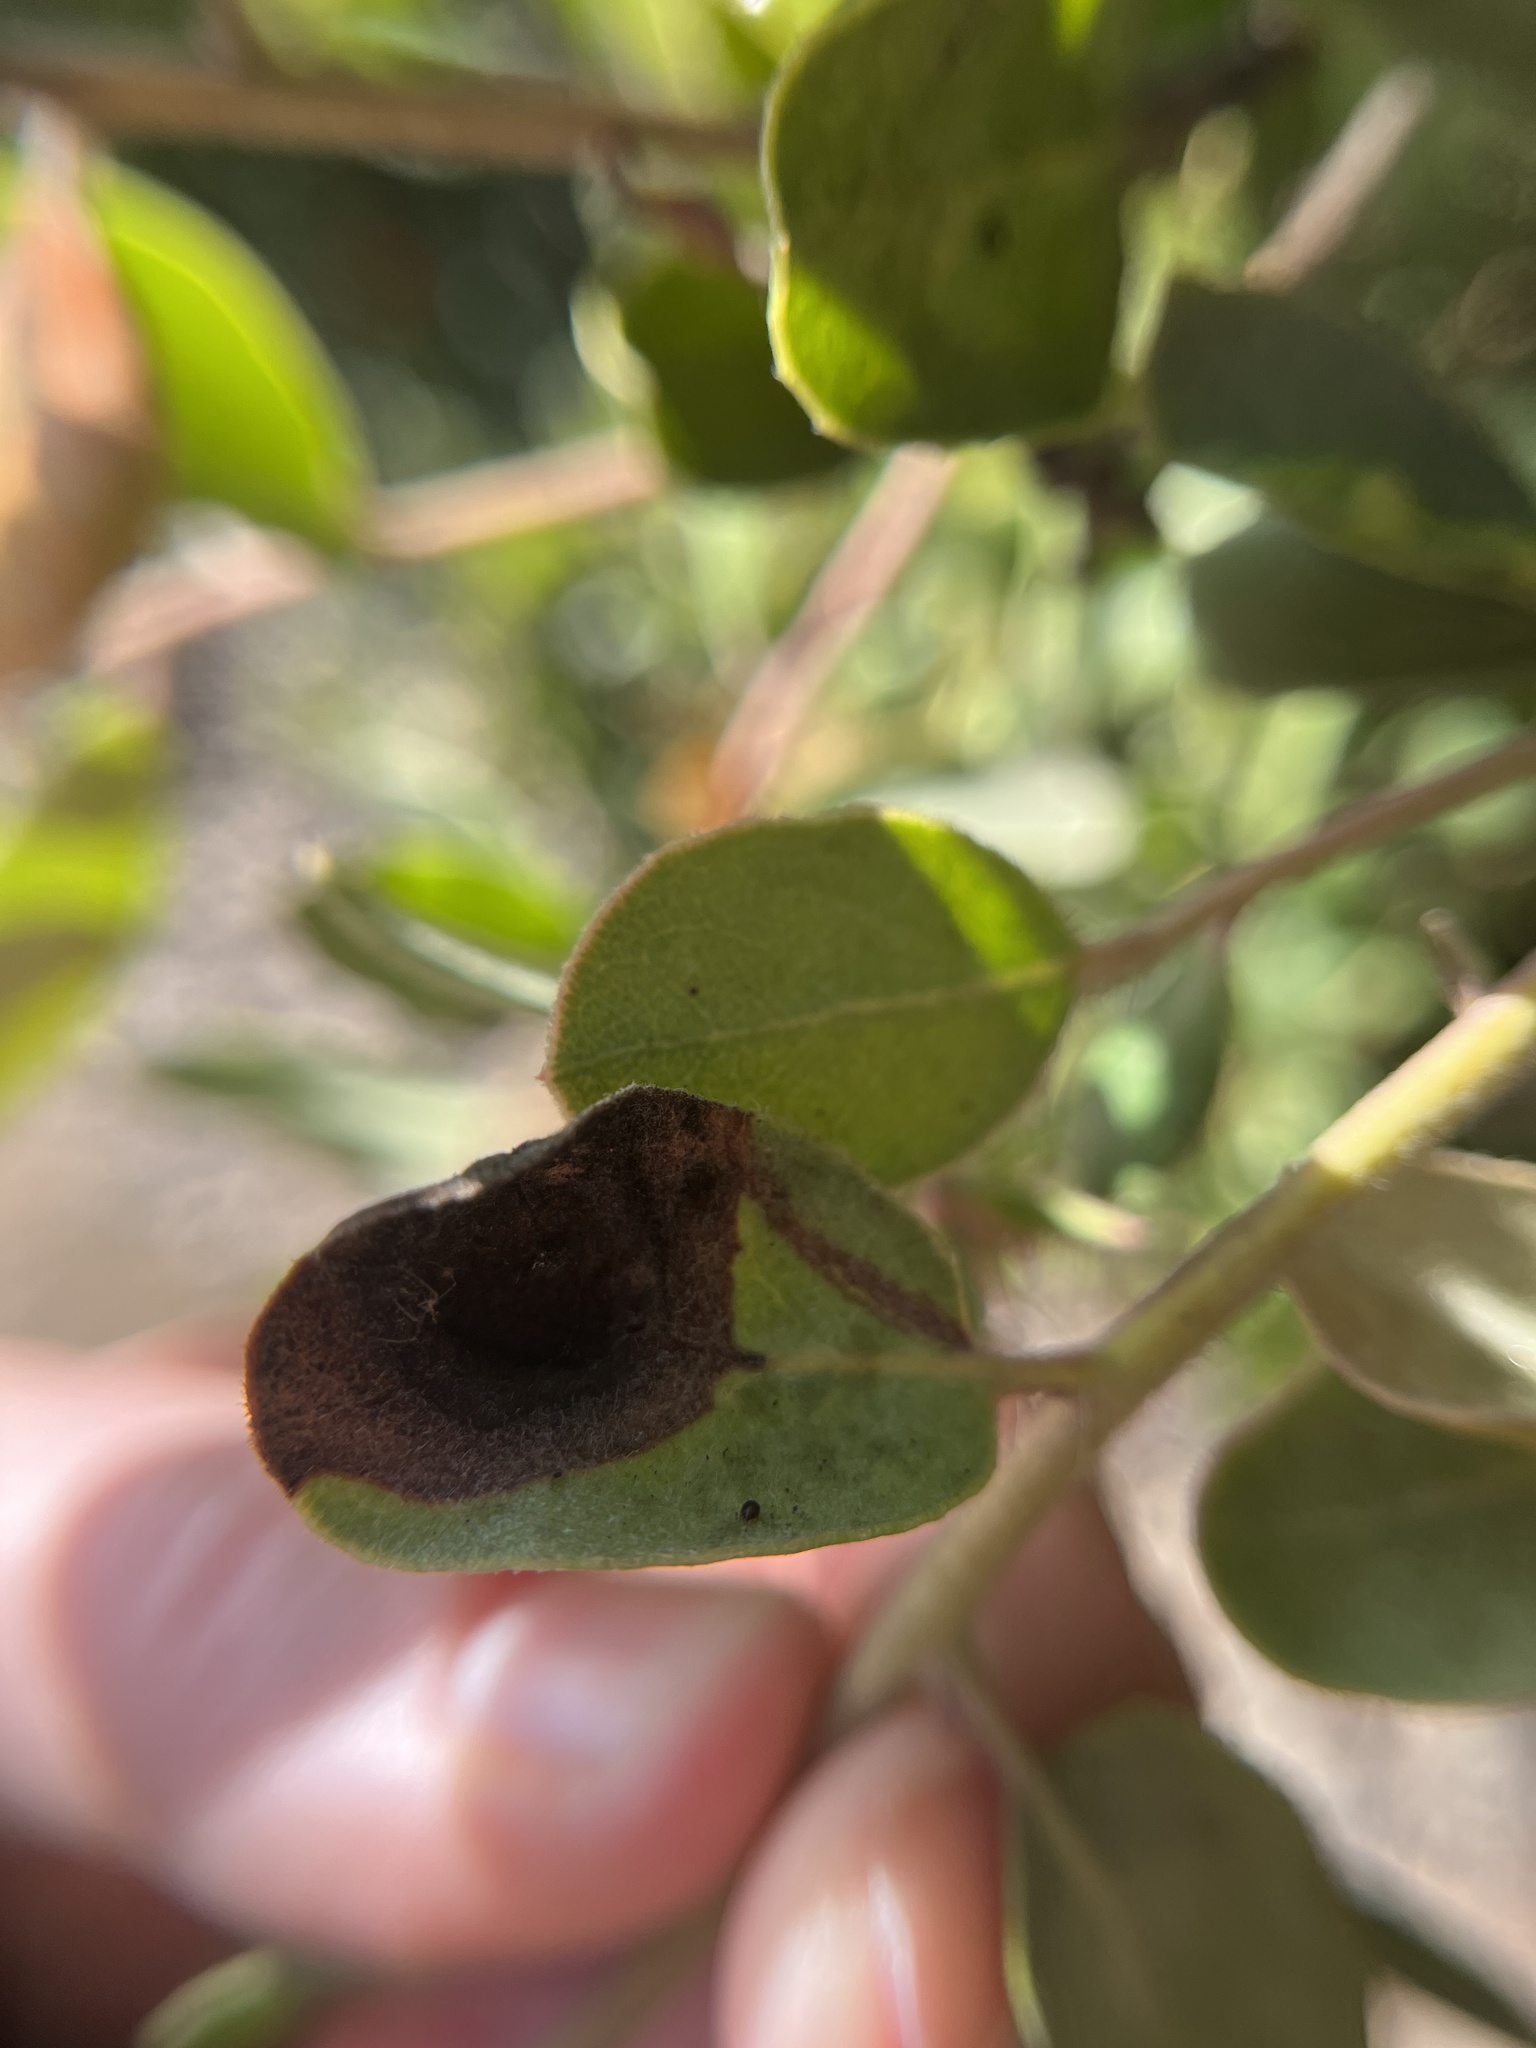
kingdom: Fungi
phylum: Basidiomycota
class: Exobasidiomycetes
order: Exobasidiales
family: Exobasidiaceae
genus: Exobasidium
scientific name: Exobasidium arctostaphyli
